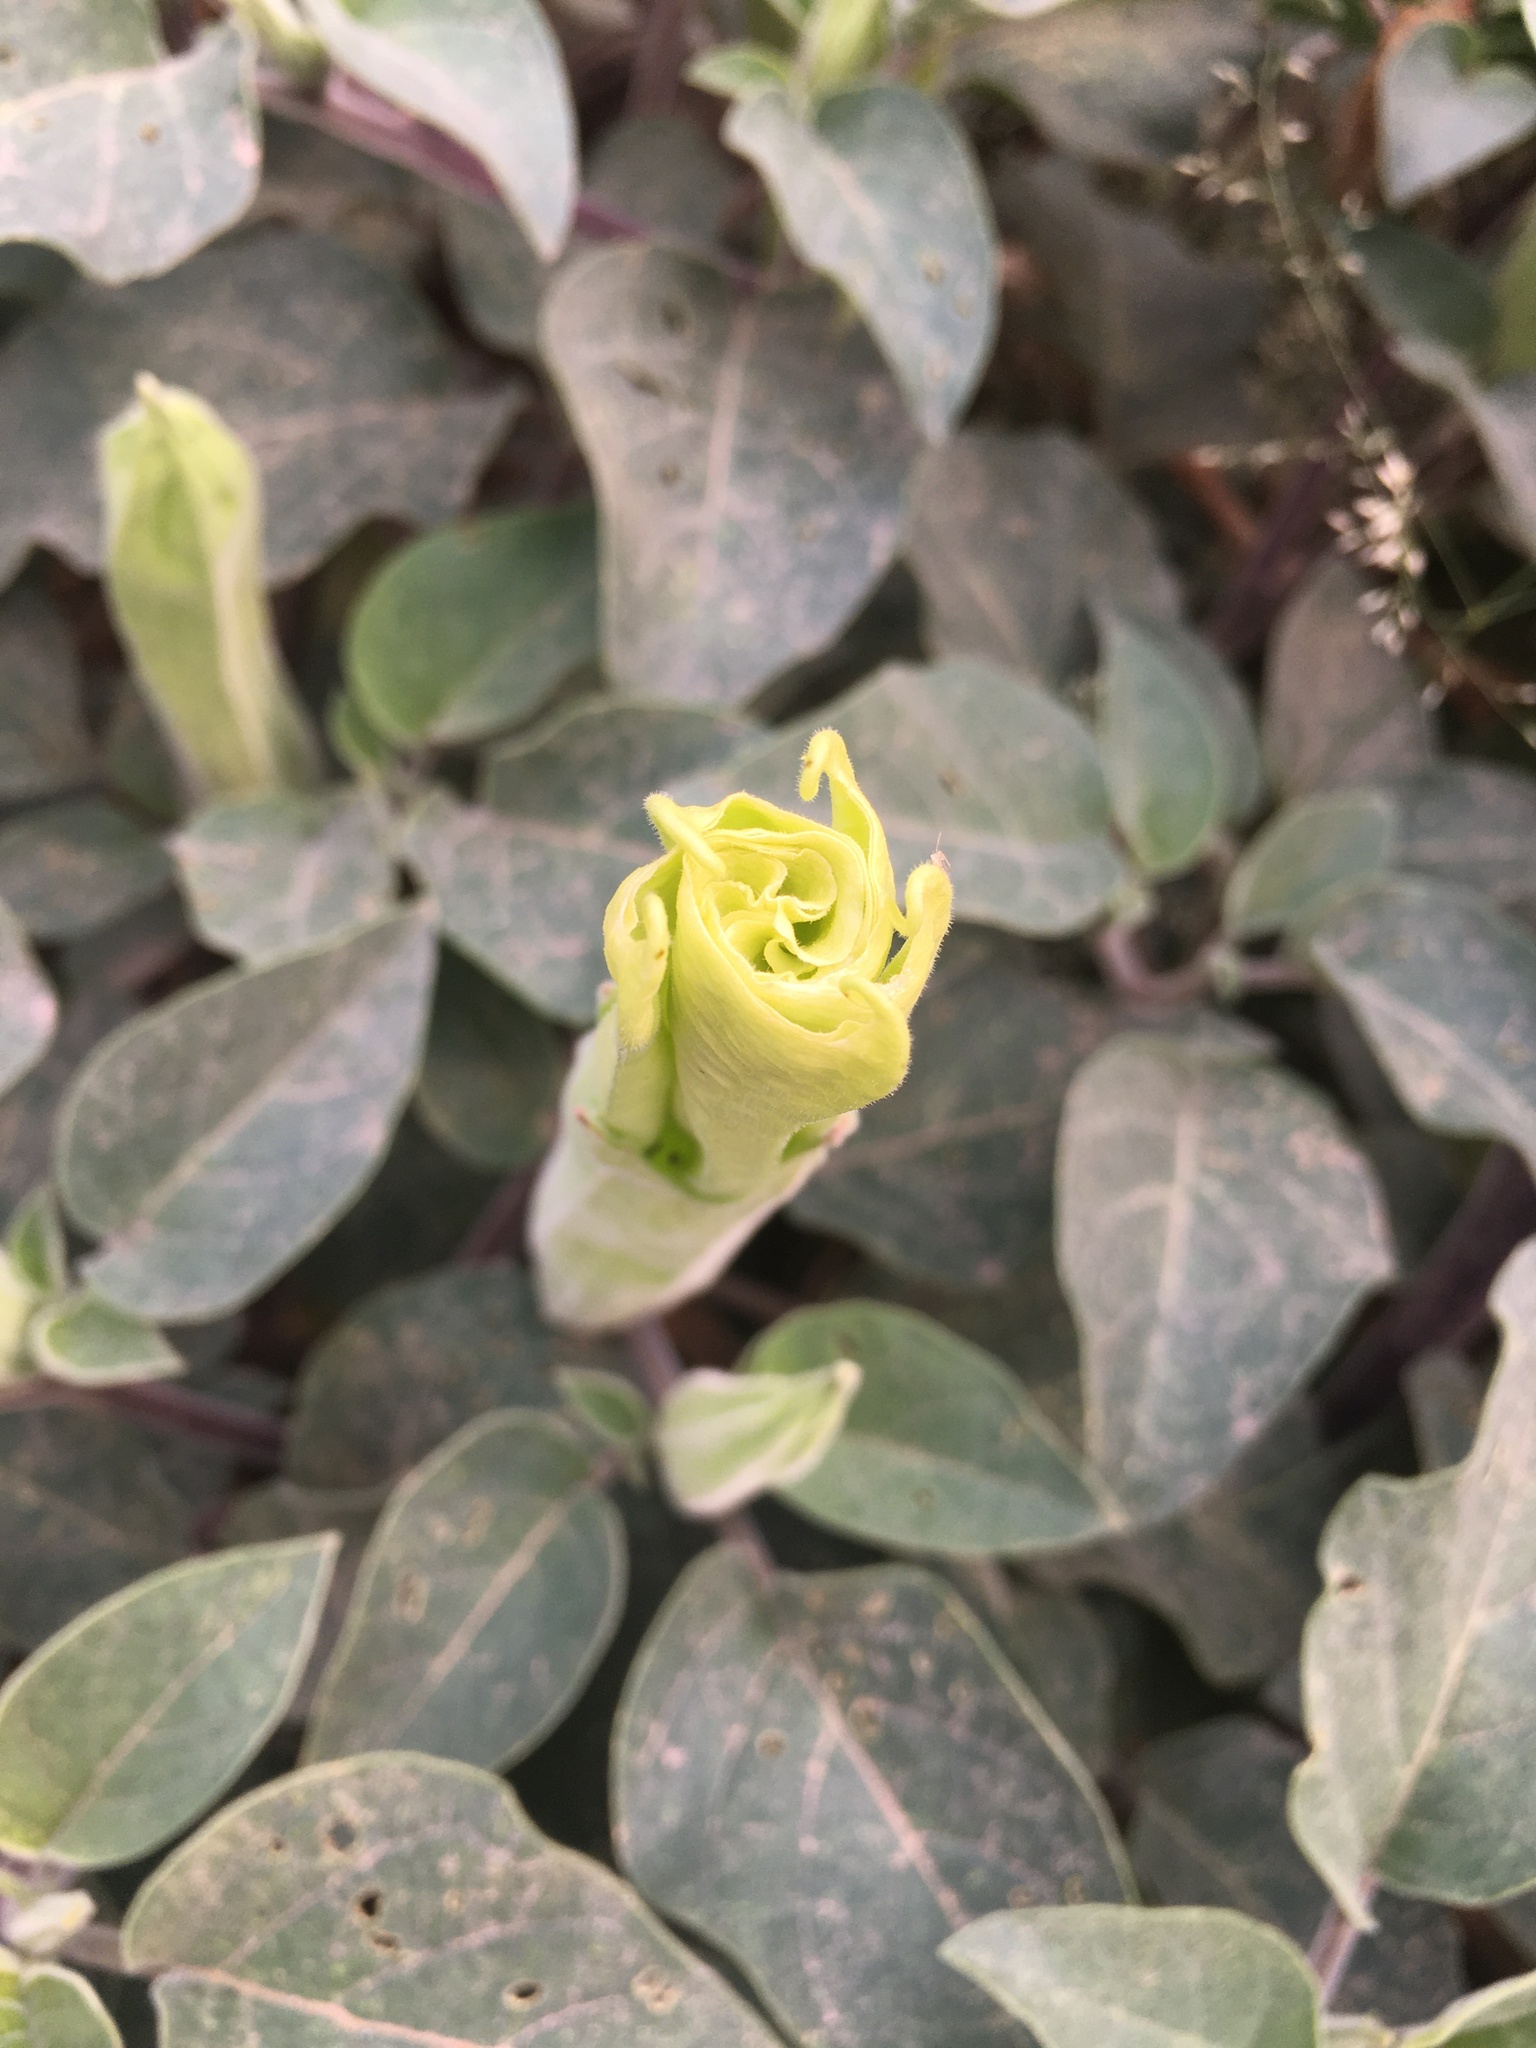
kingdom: Plantae
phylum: Tracheophyta
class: Magnoliopsida
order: Solanales
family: Solanaceae
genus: Datura
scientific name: Datura wrightii
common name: Sacred thorn-apple
